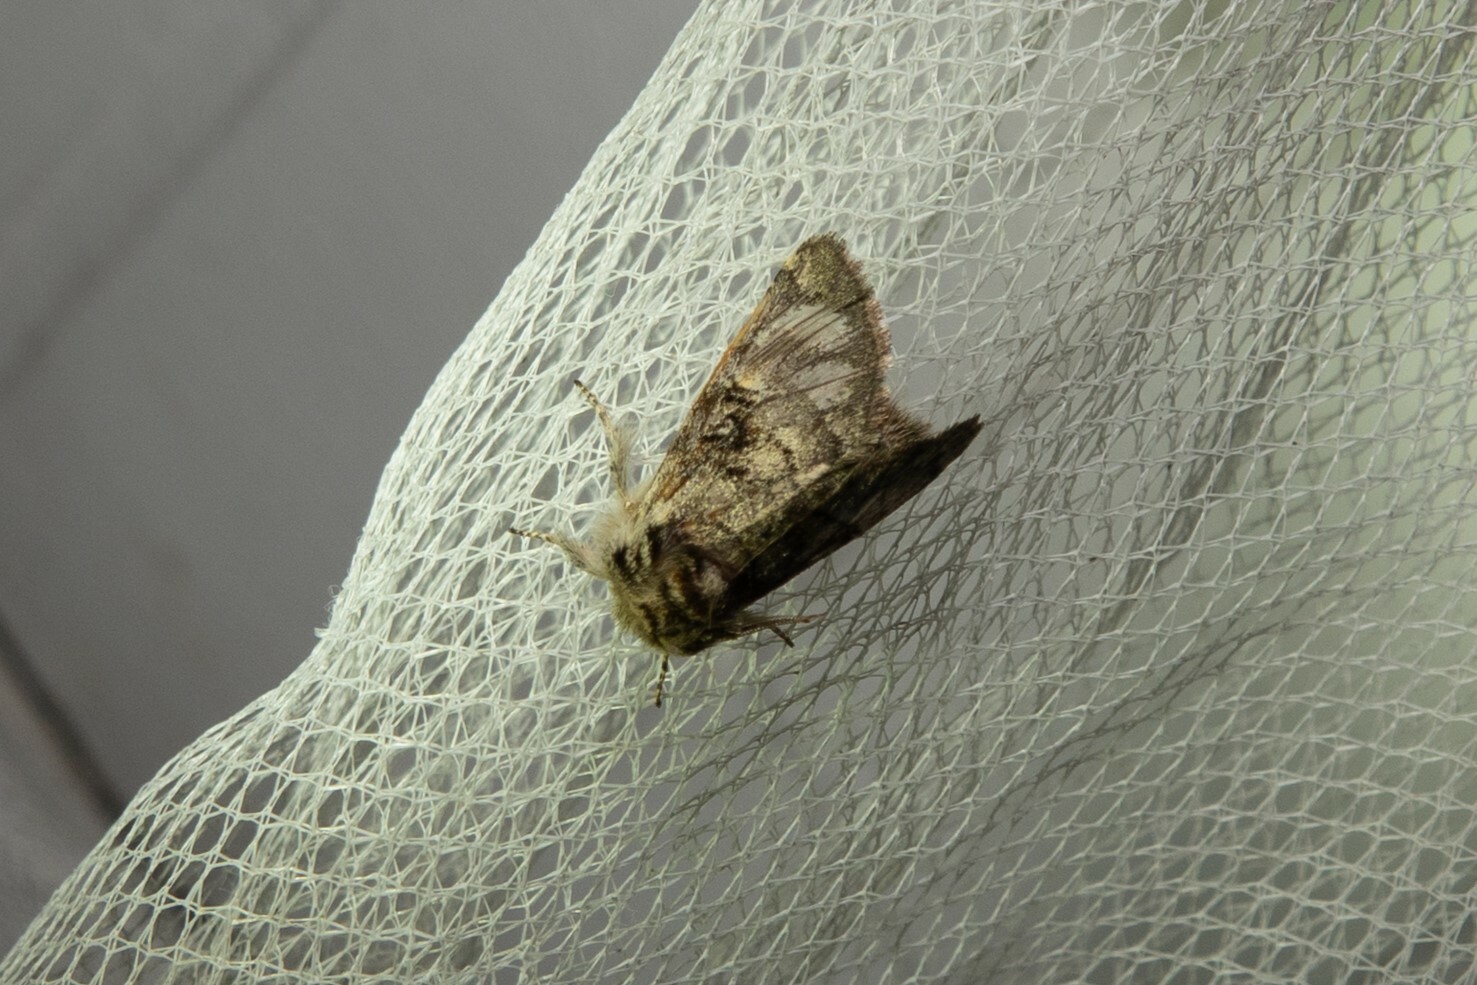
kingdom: Animalia
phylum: Arthropoda
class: Insecta
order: Lepidoptera
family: Noctuidae
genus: Colocasia
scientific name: Colocasia coryli
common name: Nut-tree tussock
